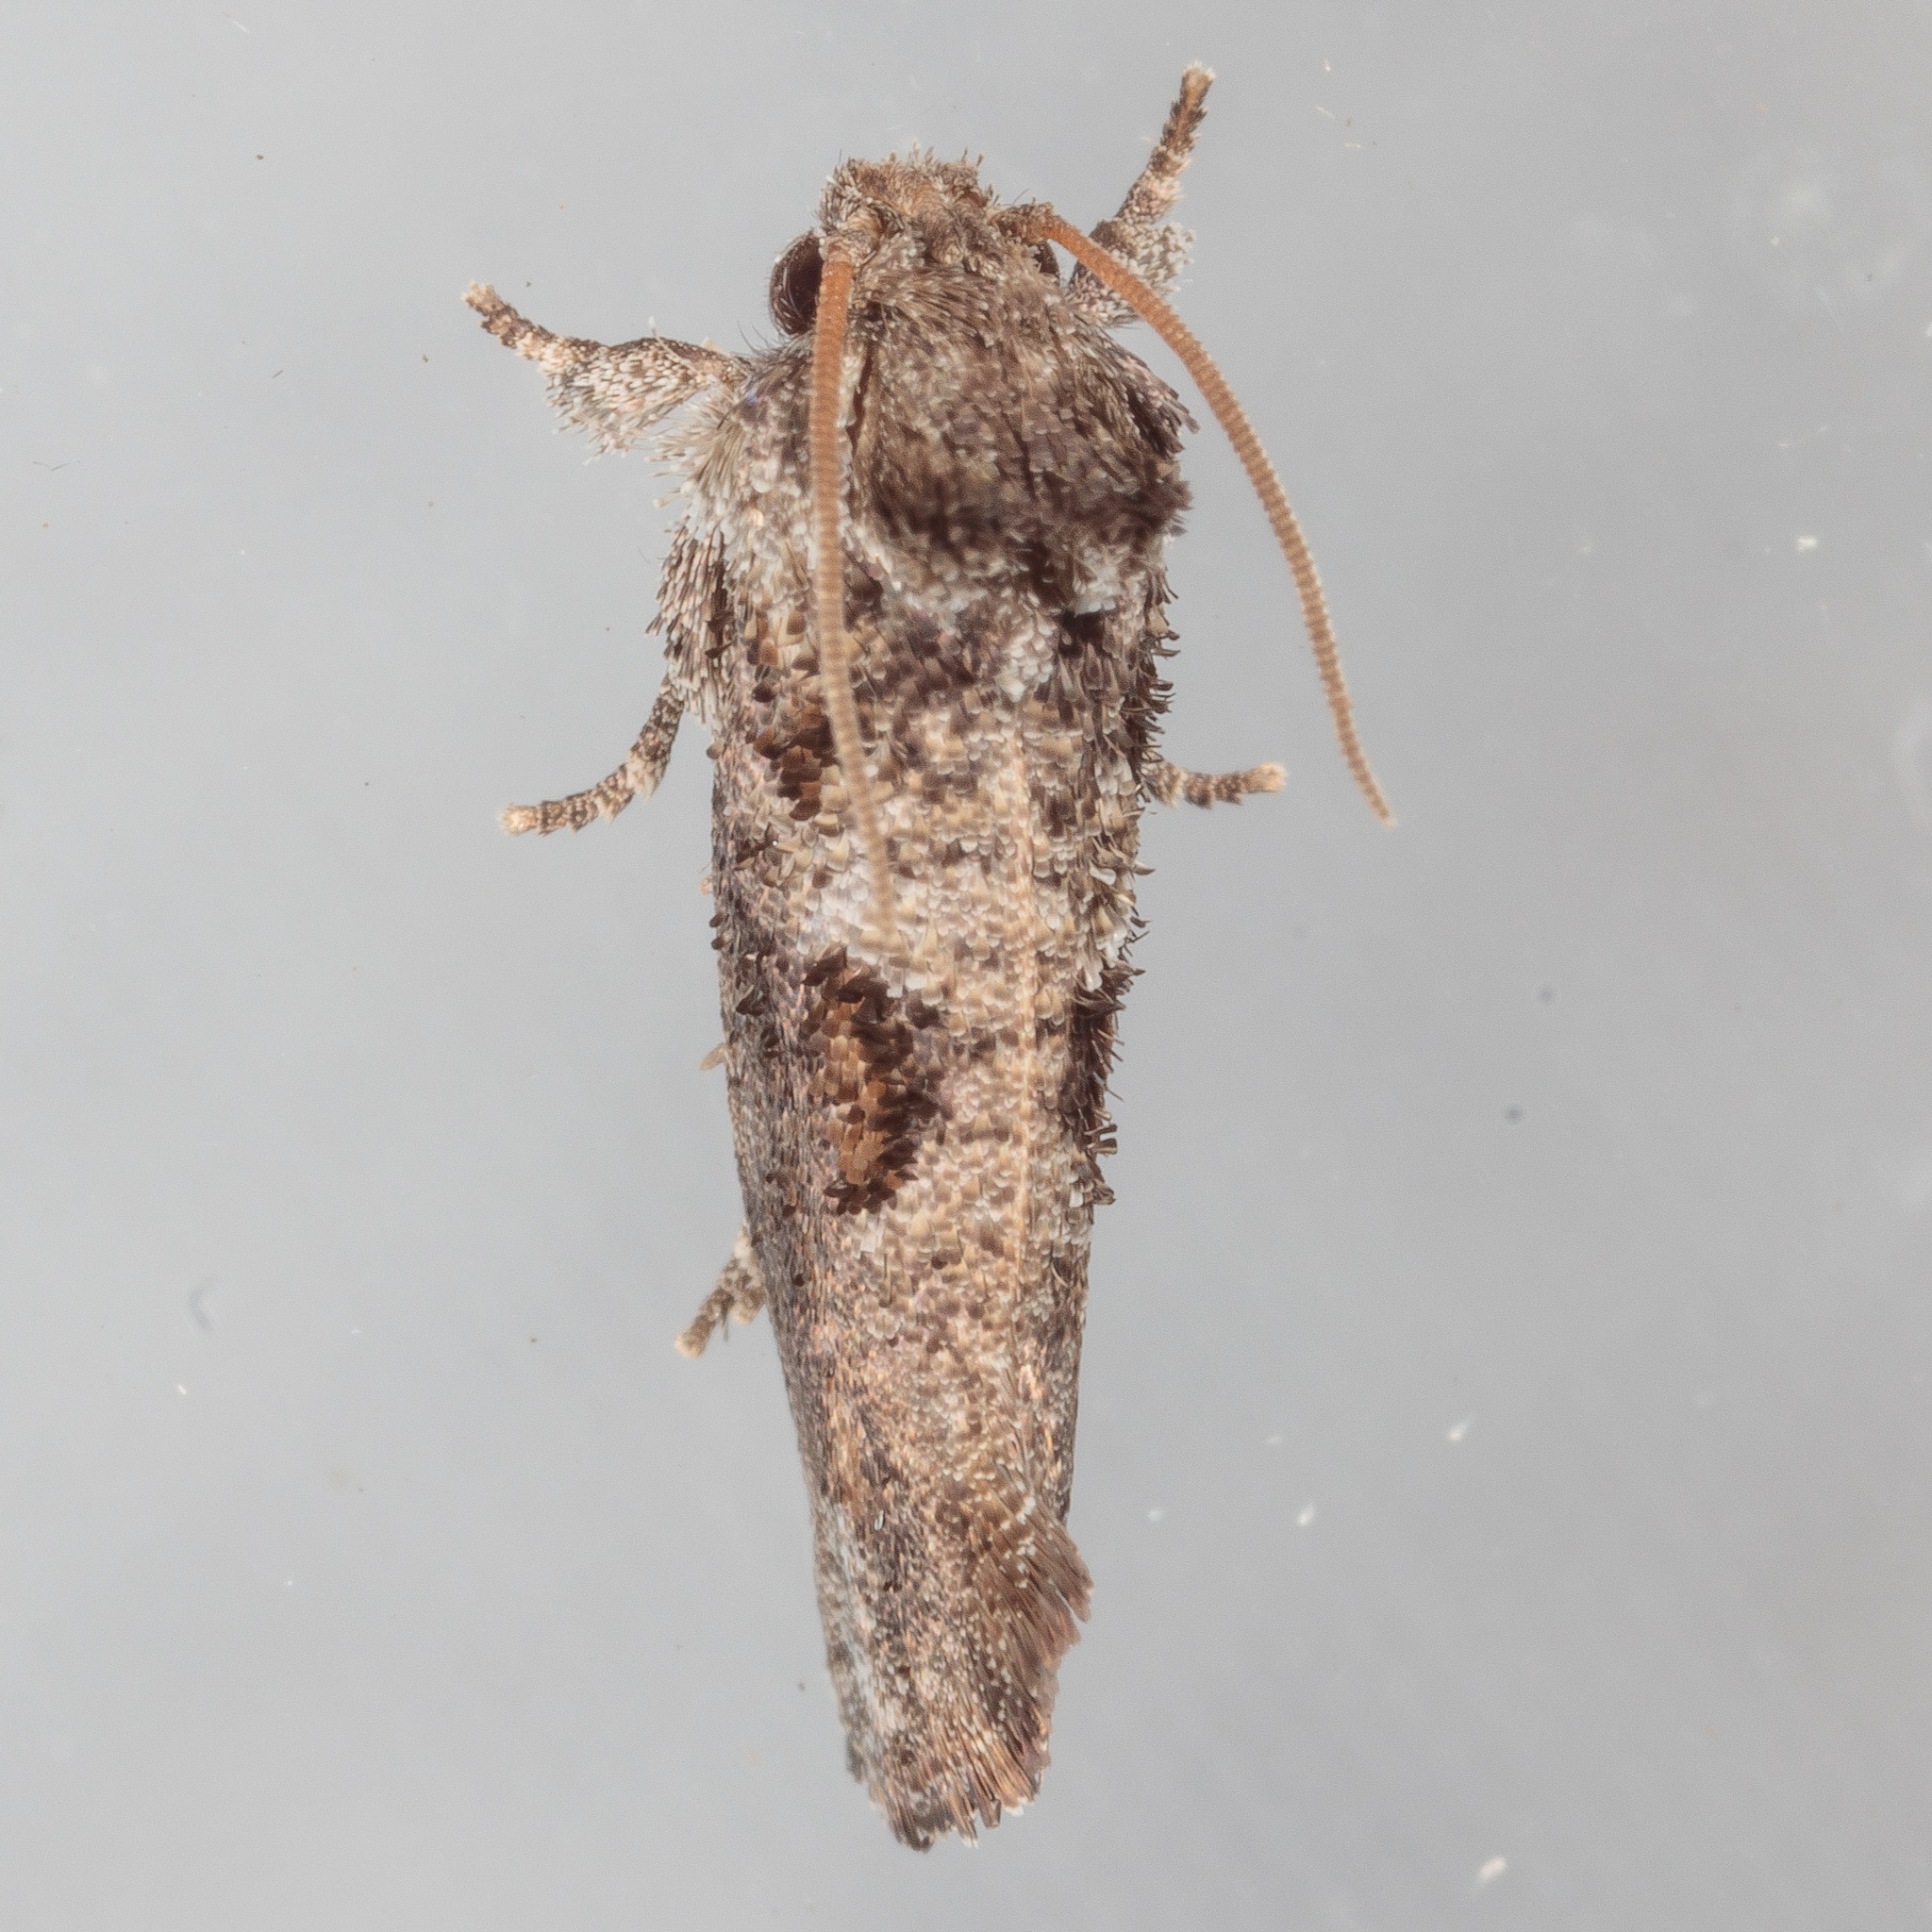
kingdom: Animalia
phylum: Arthropoda
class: Insecta
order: Lepidoptera
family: Tineidae
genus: Acrolophus
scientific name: Acrolophus piger
